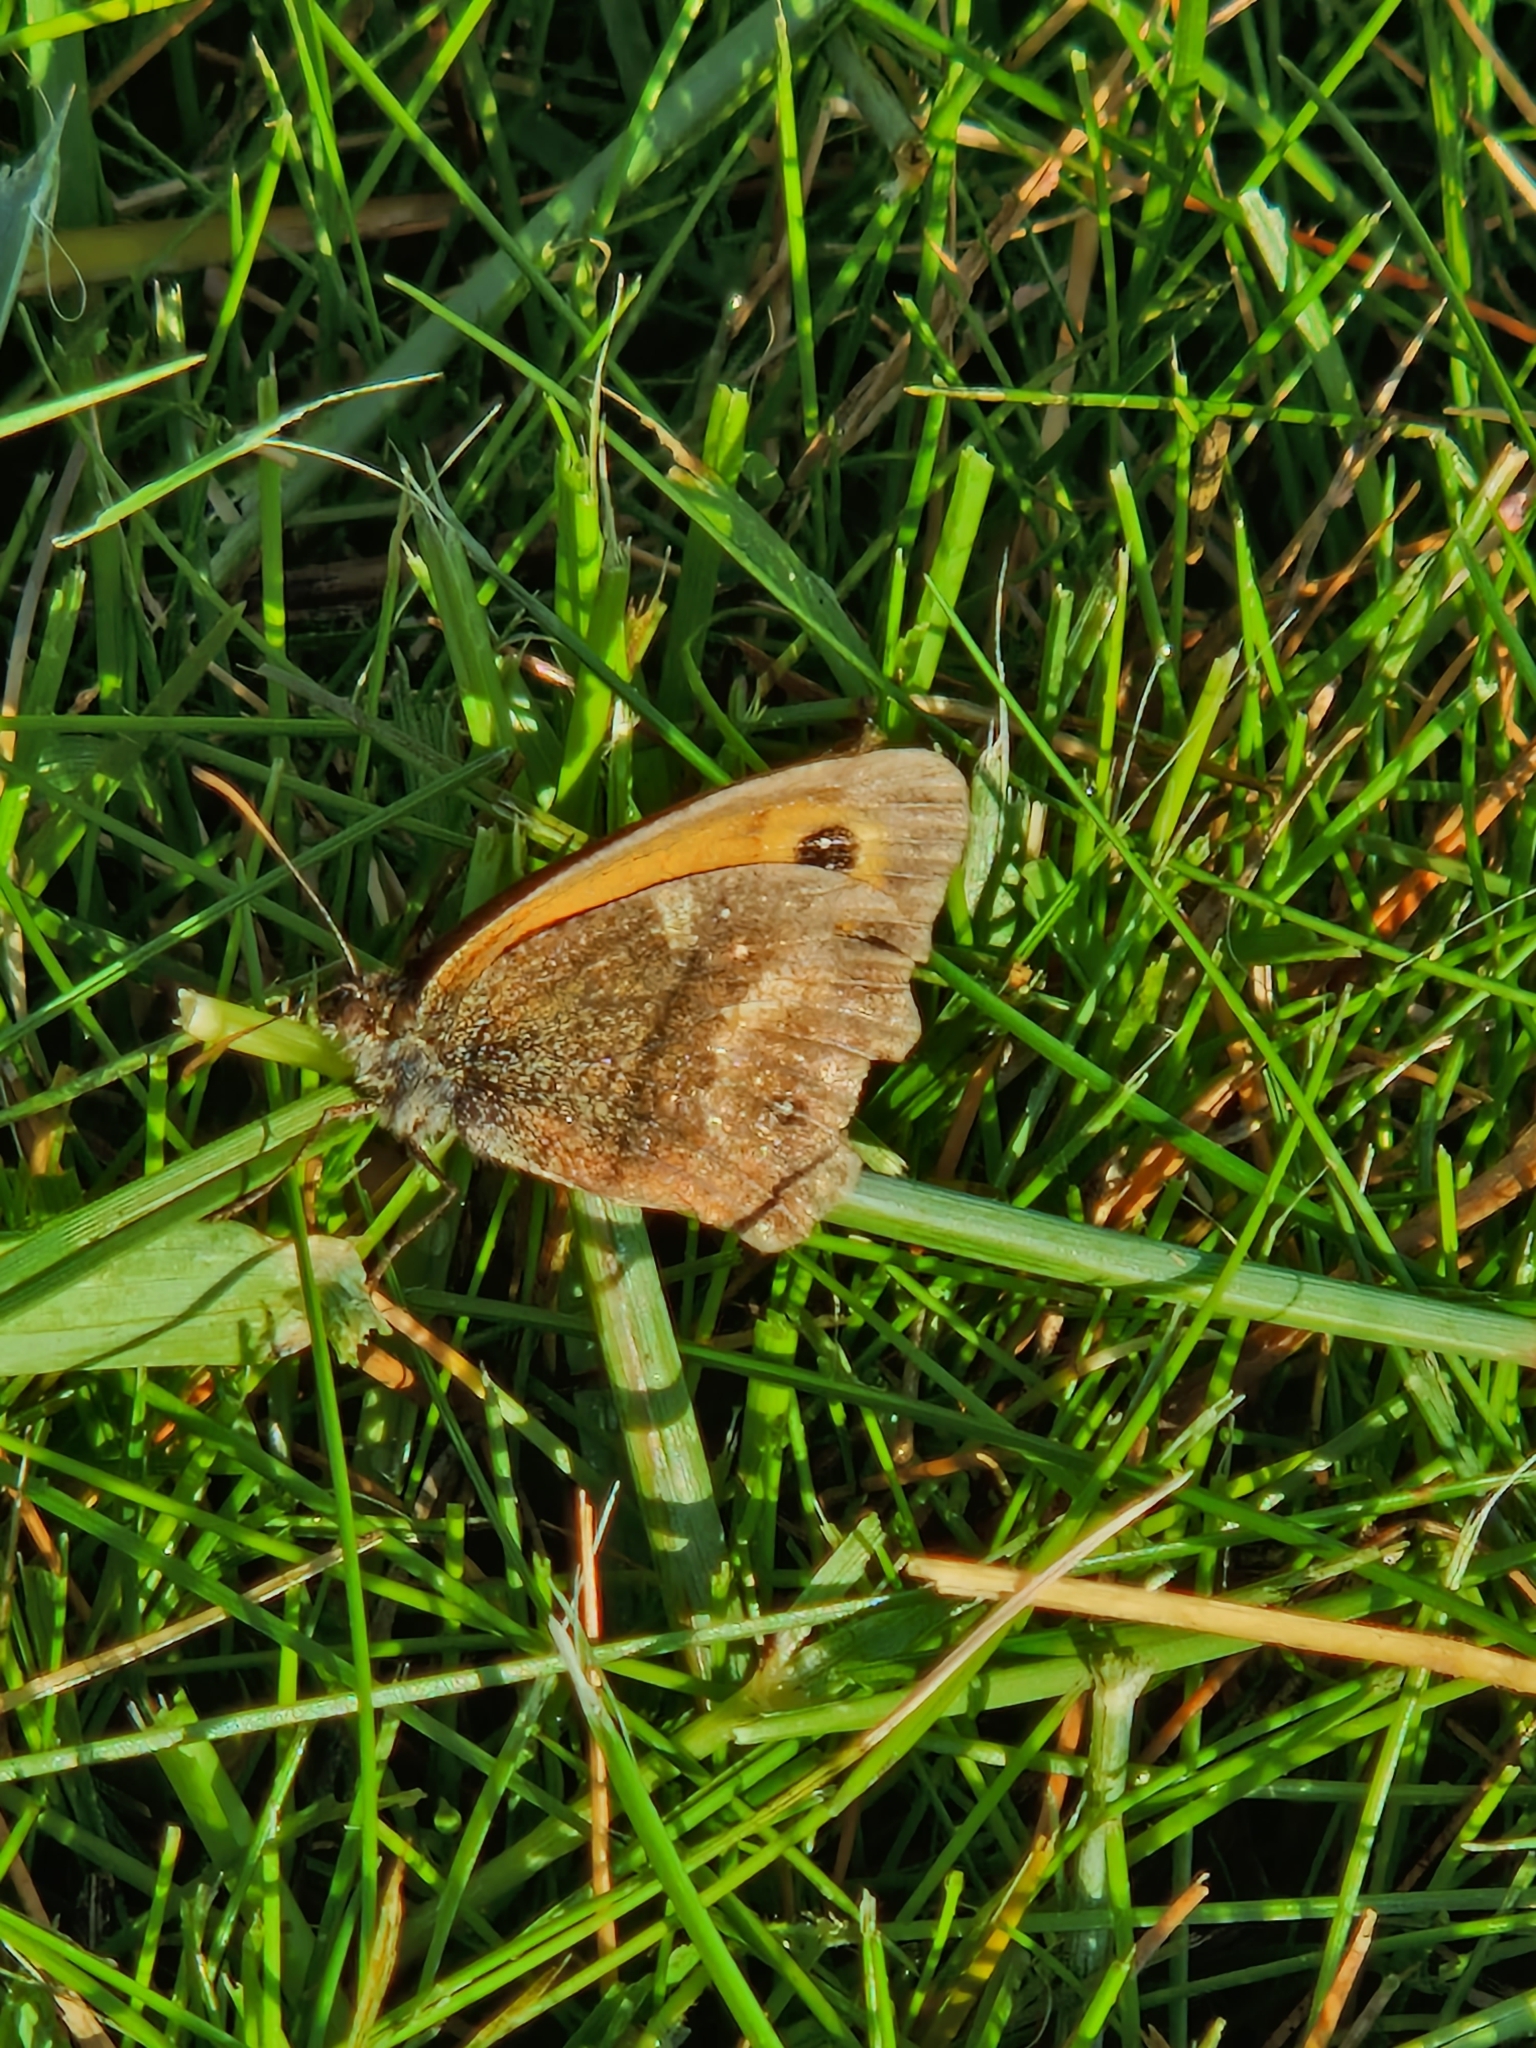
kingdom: Animalia
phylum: Arthropoda
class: Insecta
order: Lepidoptera
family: Nymphalidae
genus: Pyronia
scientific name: Pyronia tithonus
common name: Gatekeeper
